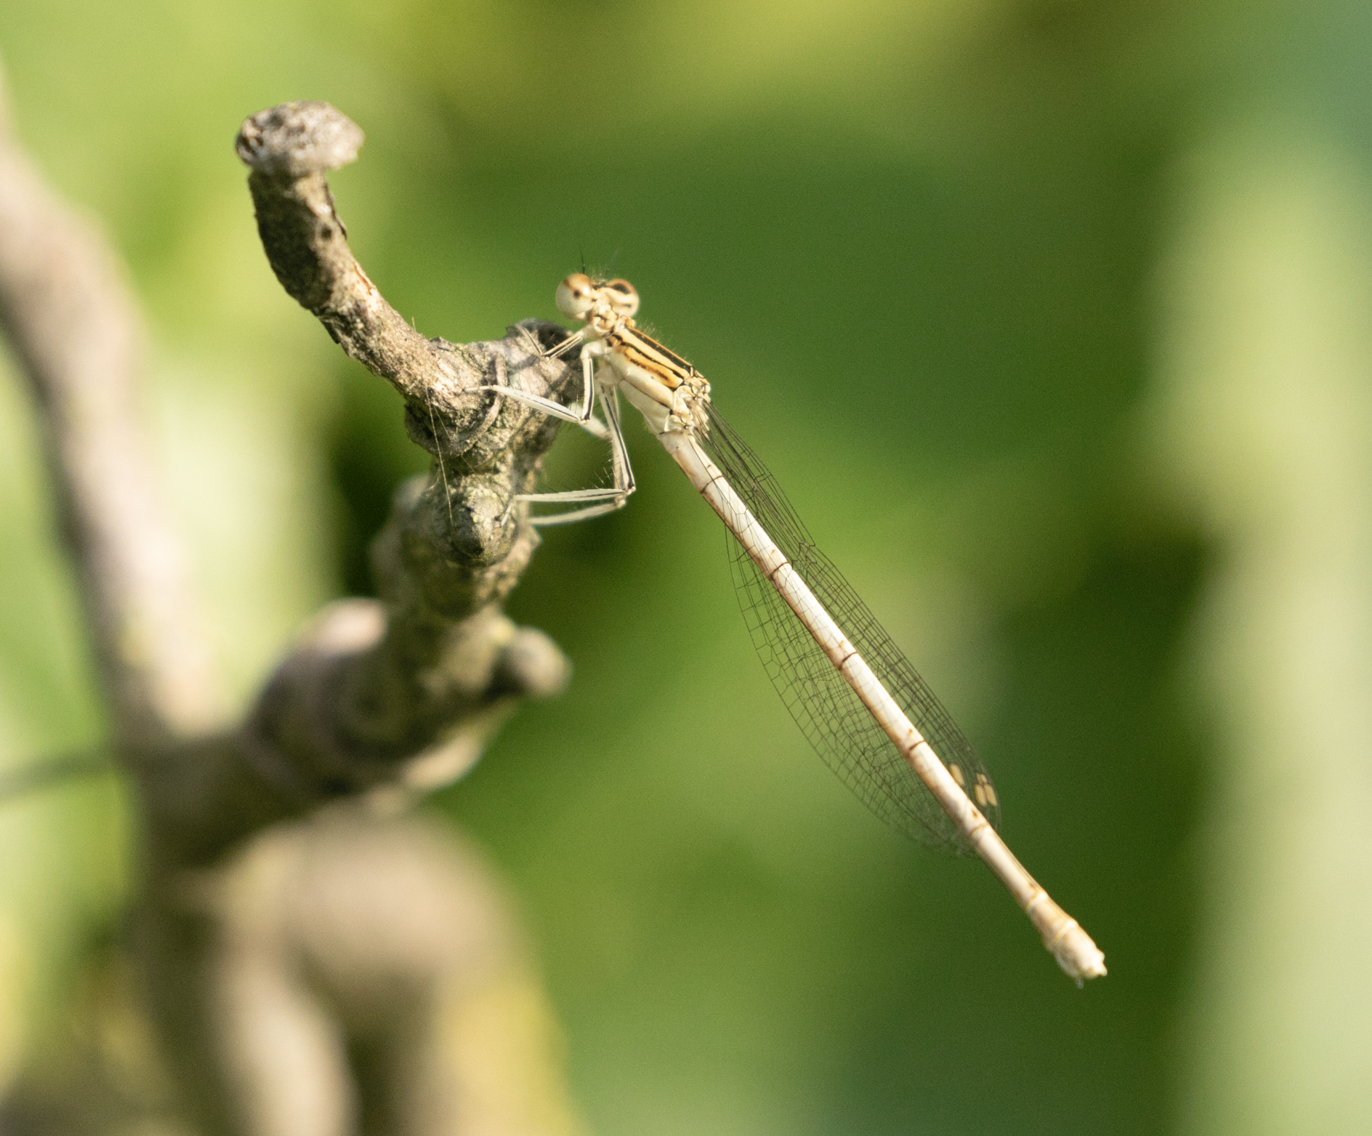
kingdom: Animalia
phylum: Arthropoda
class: Insecta
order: Odonata
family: Platycnemididae
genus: Platycnemis
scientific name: Platycnemis pennipes
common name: White-legged damselfly
